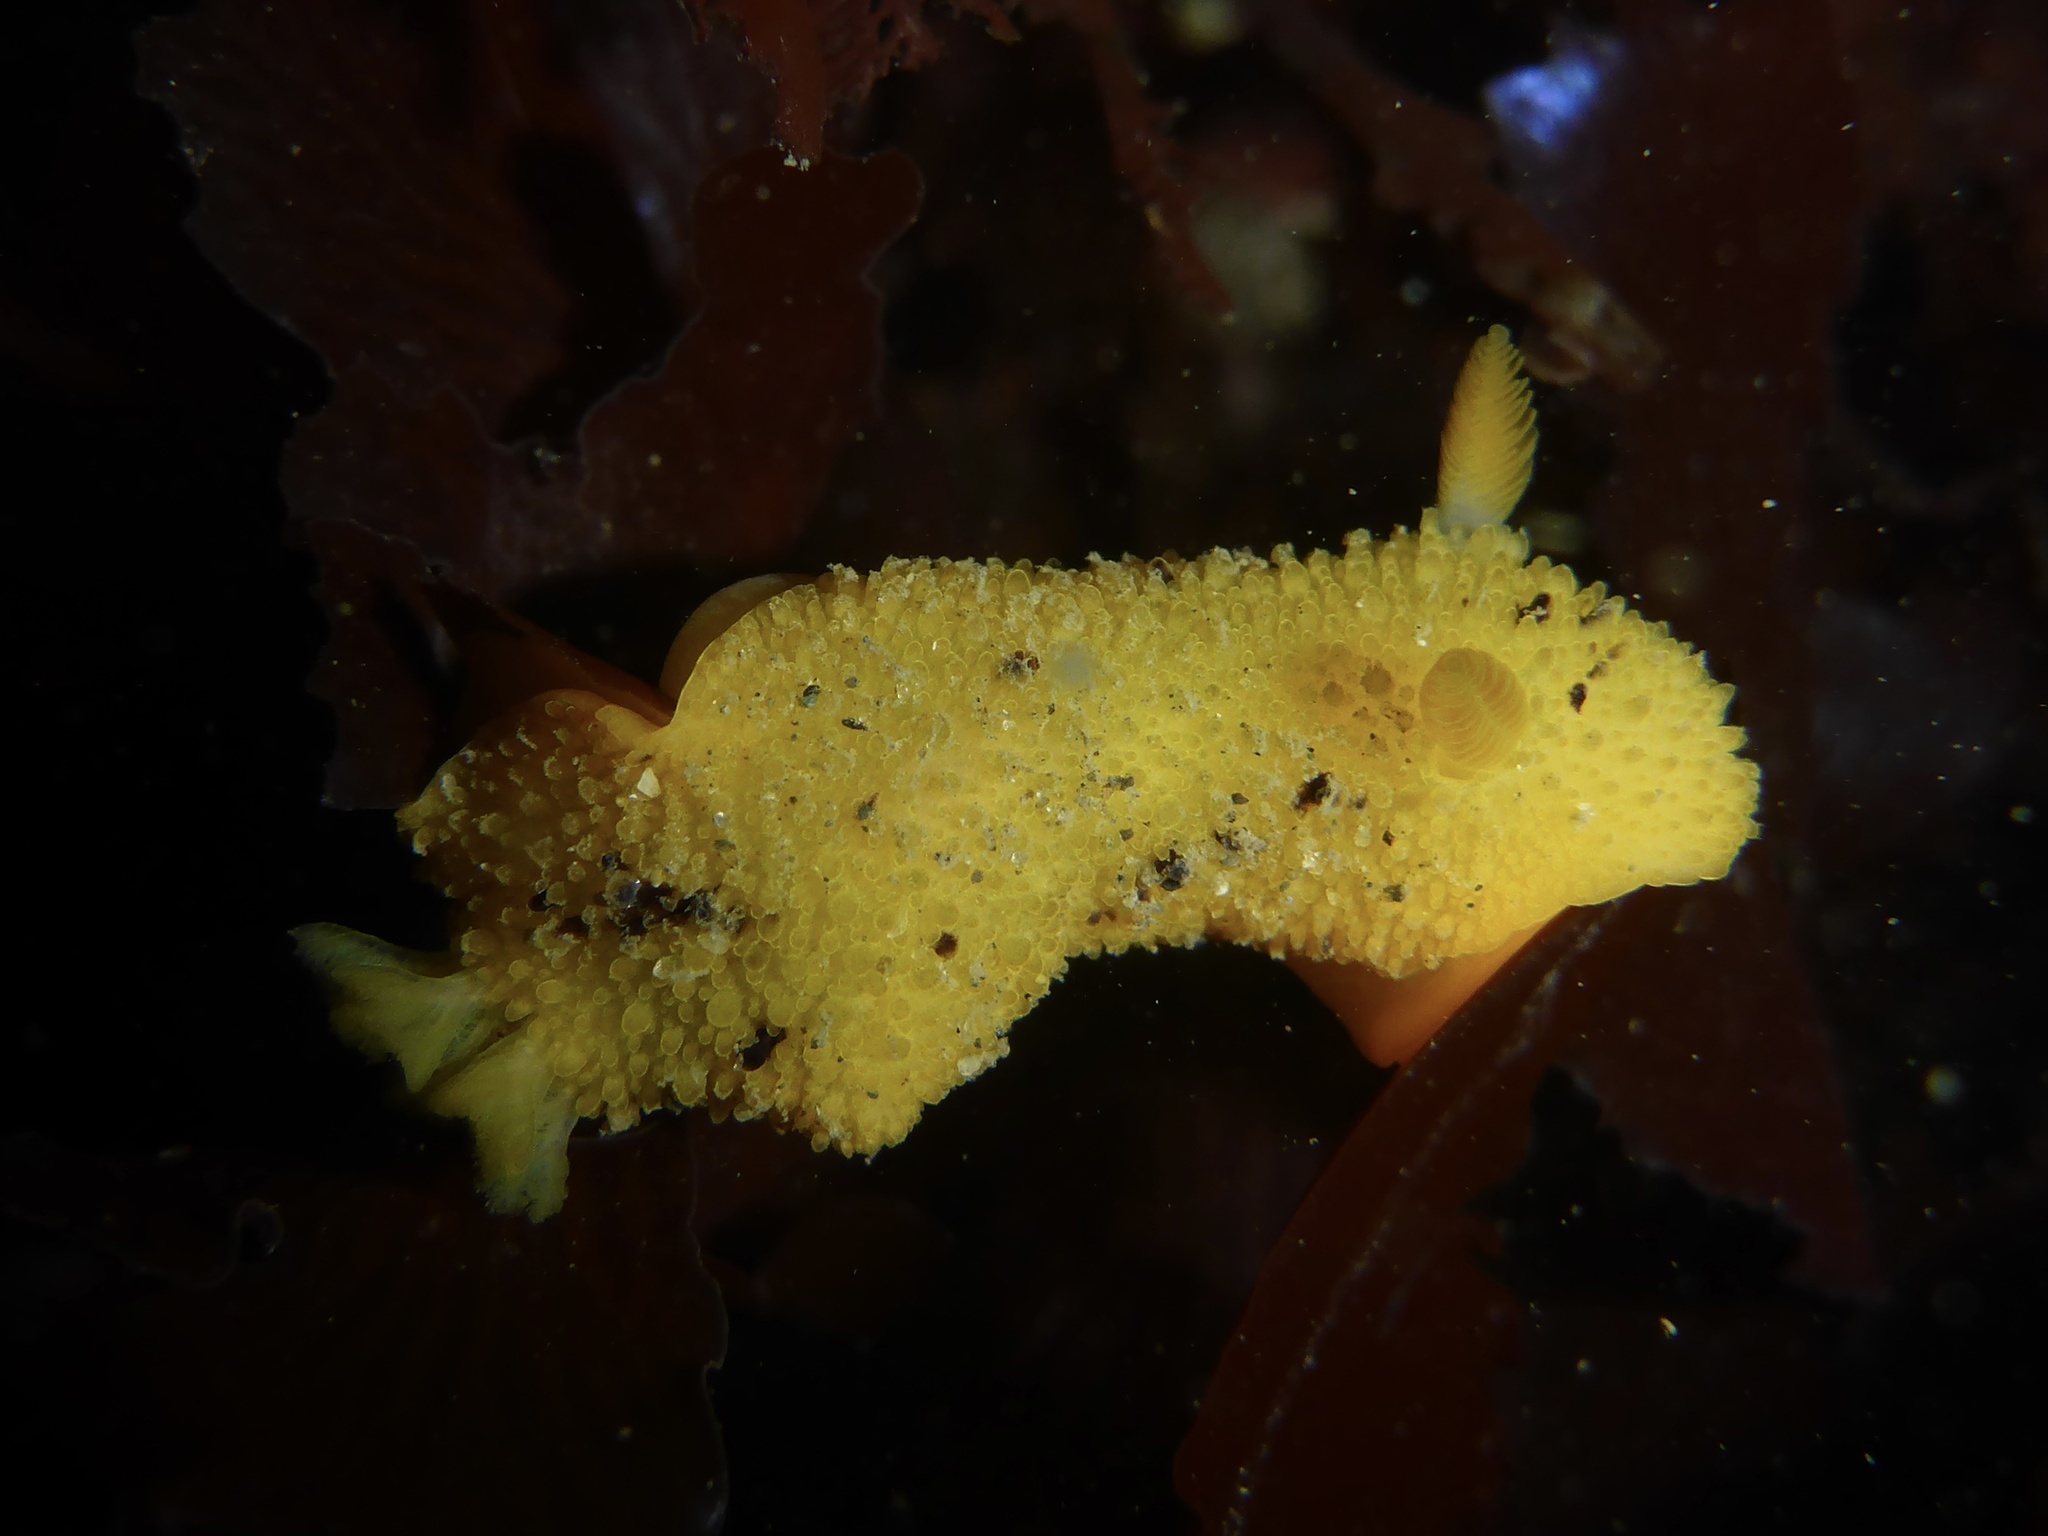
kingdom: Animalia
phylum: Mollusca
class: Gastropoda
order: Nudibranchia
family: Dorididae
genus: Doris
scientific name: Doris montereyensis
